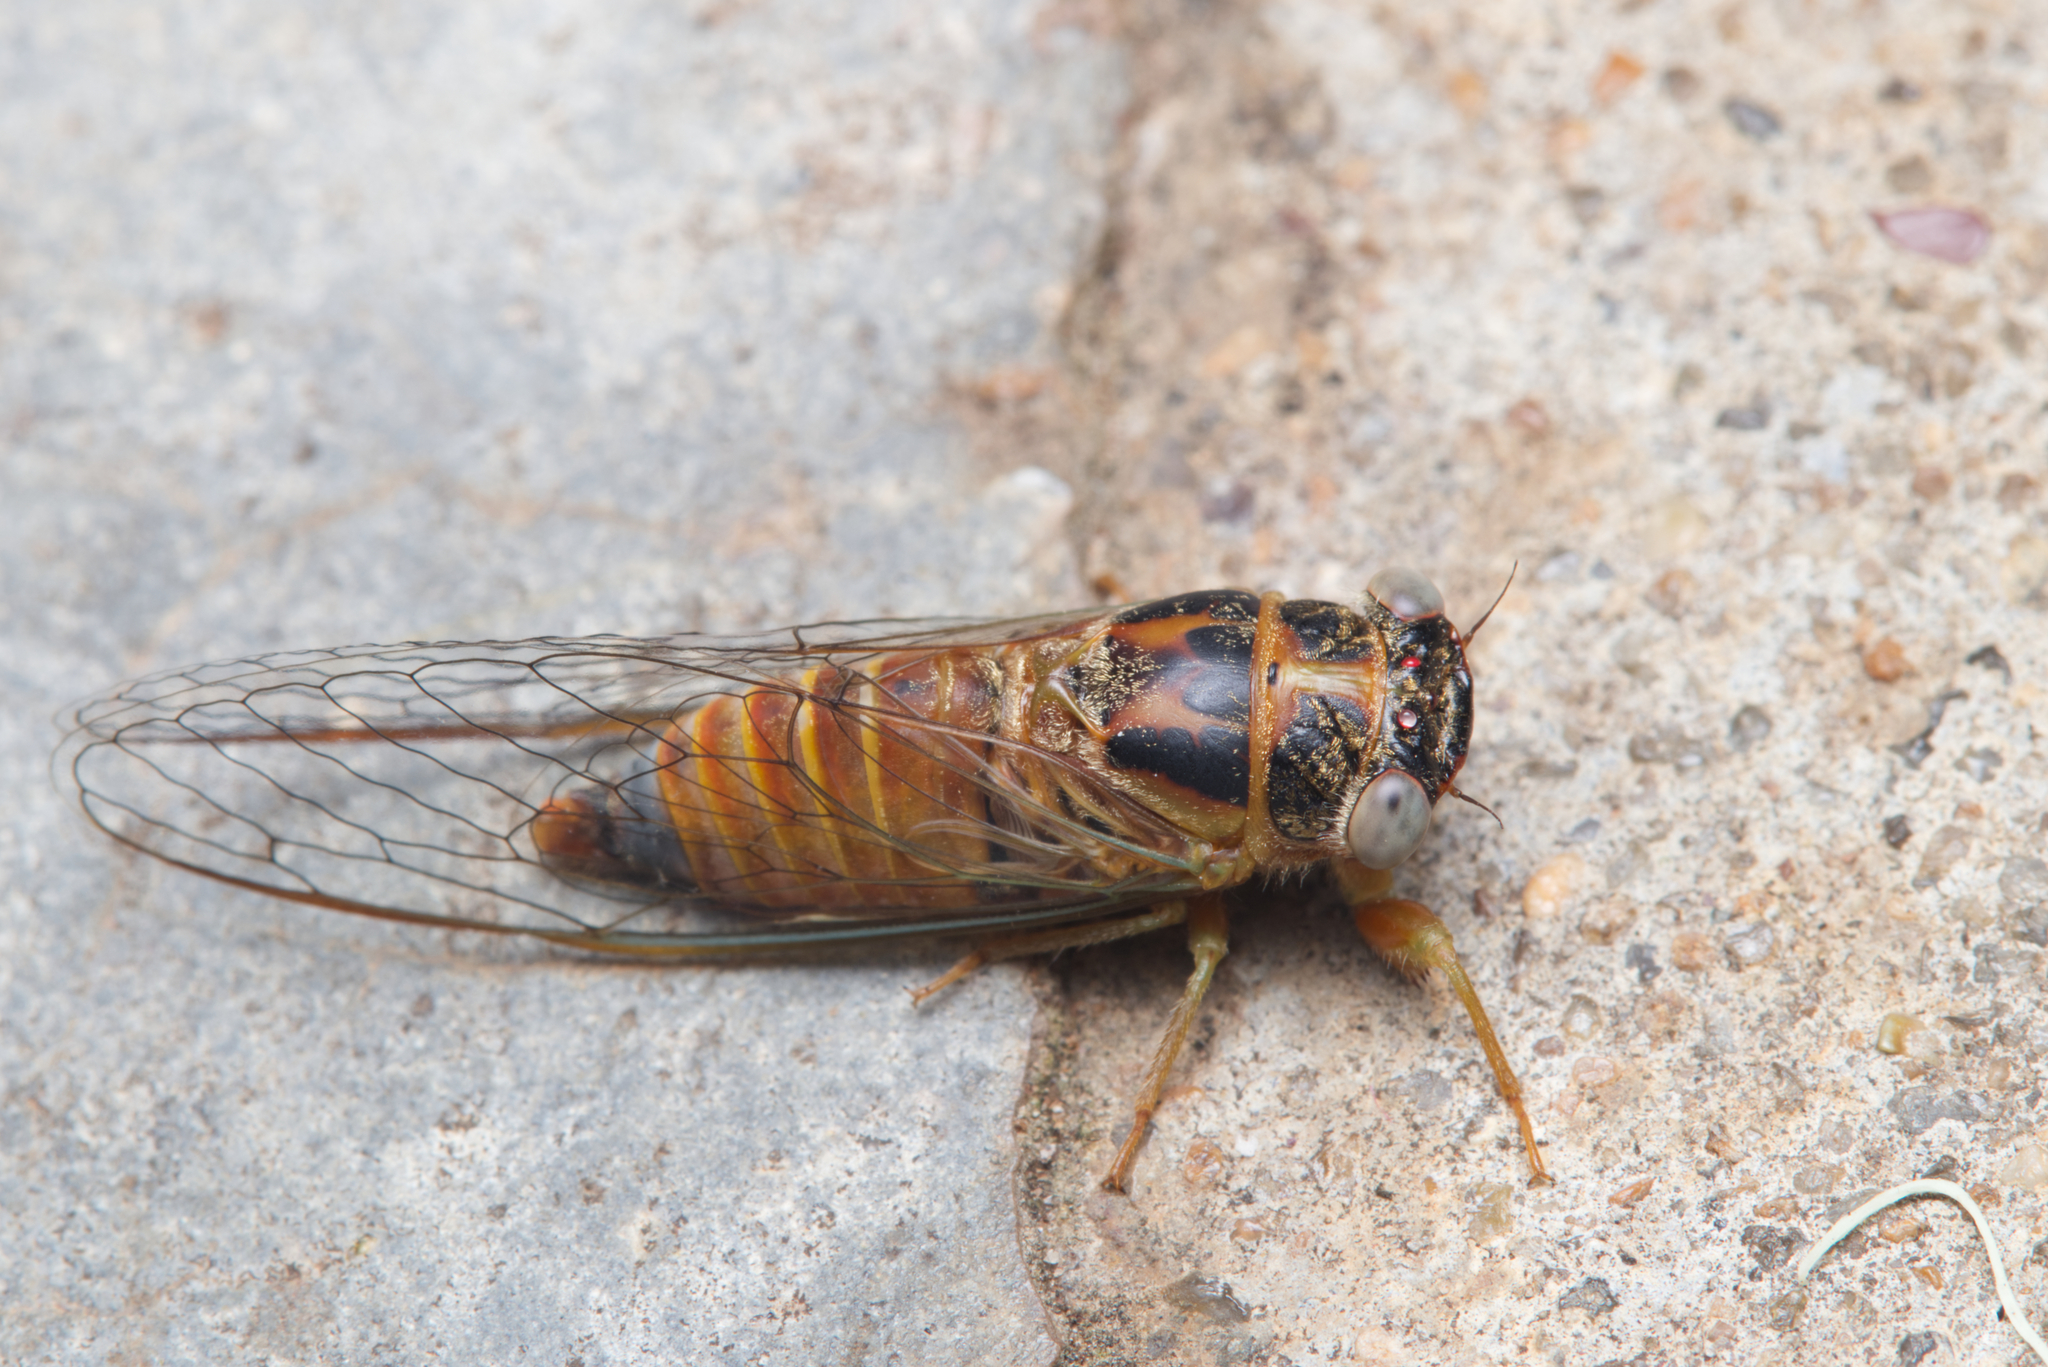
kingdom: Animalia
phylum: Arthropoda
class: Insecta
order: Hemiptera
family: Cicadidae
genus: Palapsalta
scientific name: Palapsalta eyrei
